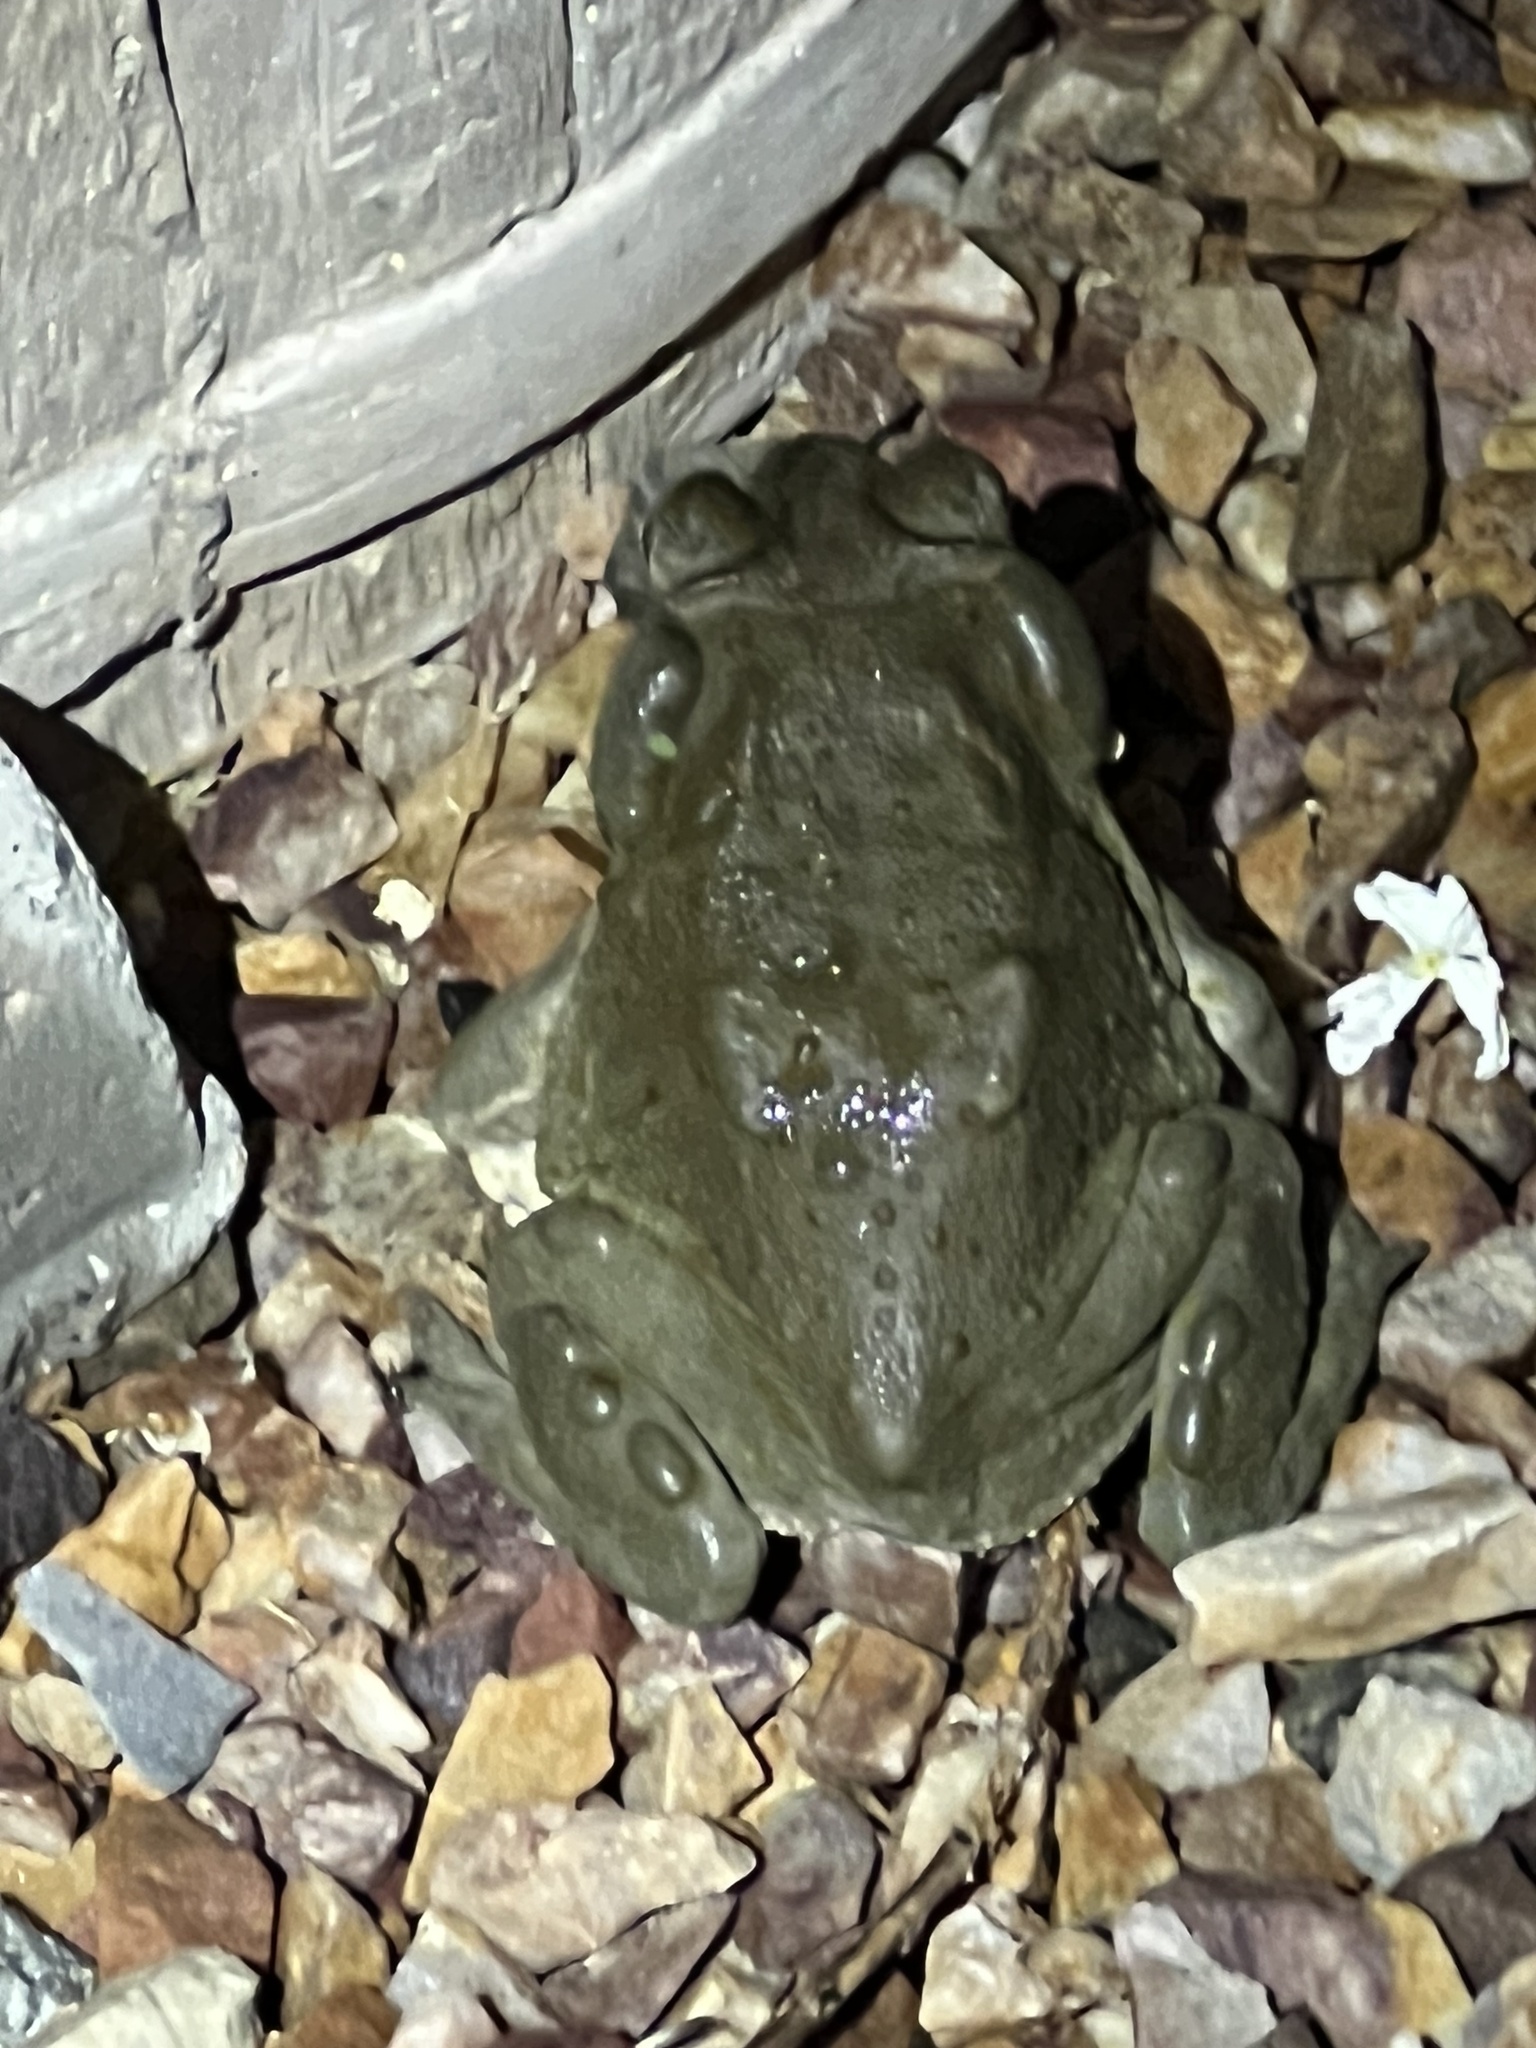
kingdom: Animalia
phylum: Chordata
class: Amphibia
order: Anura
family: Bufonidae
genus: Incilius
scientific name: Incilius alvarius
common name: Sonoran desert toad
